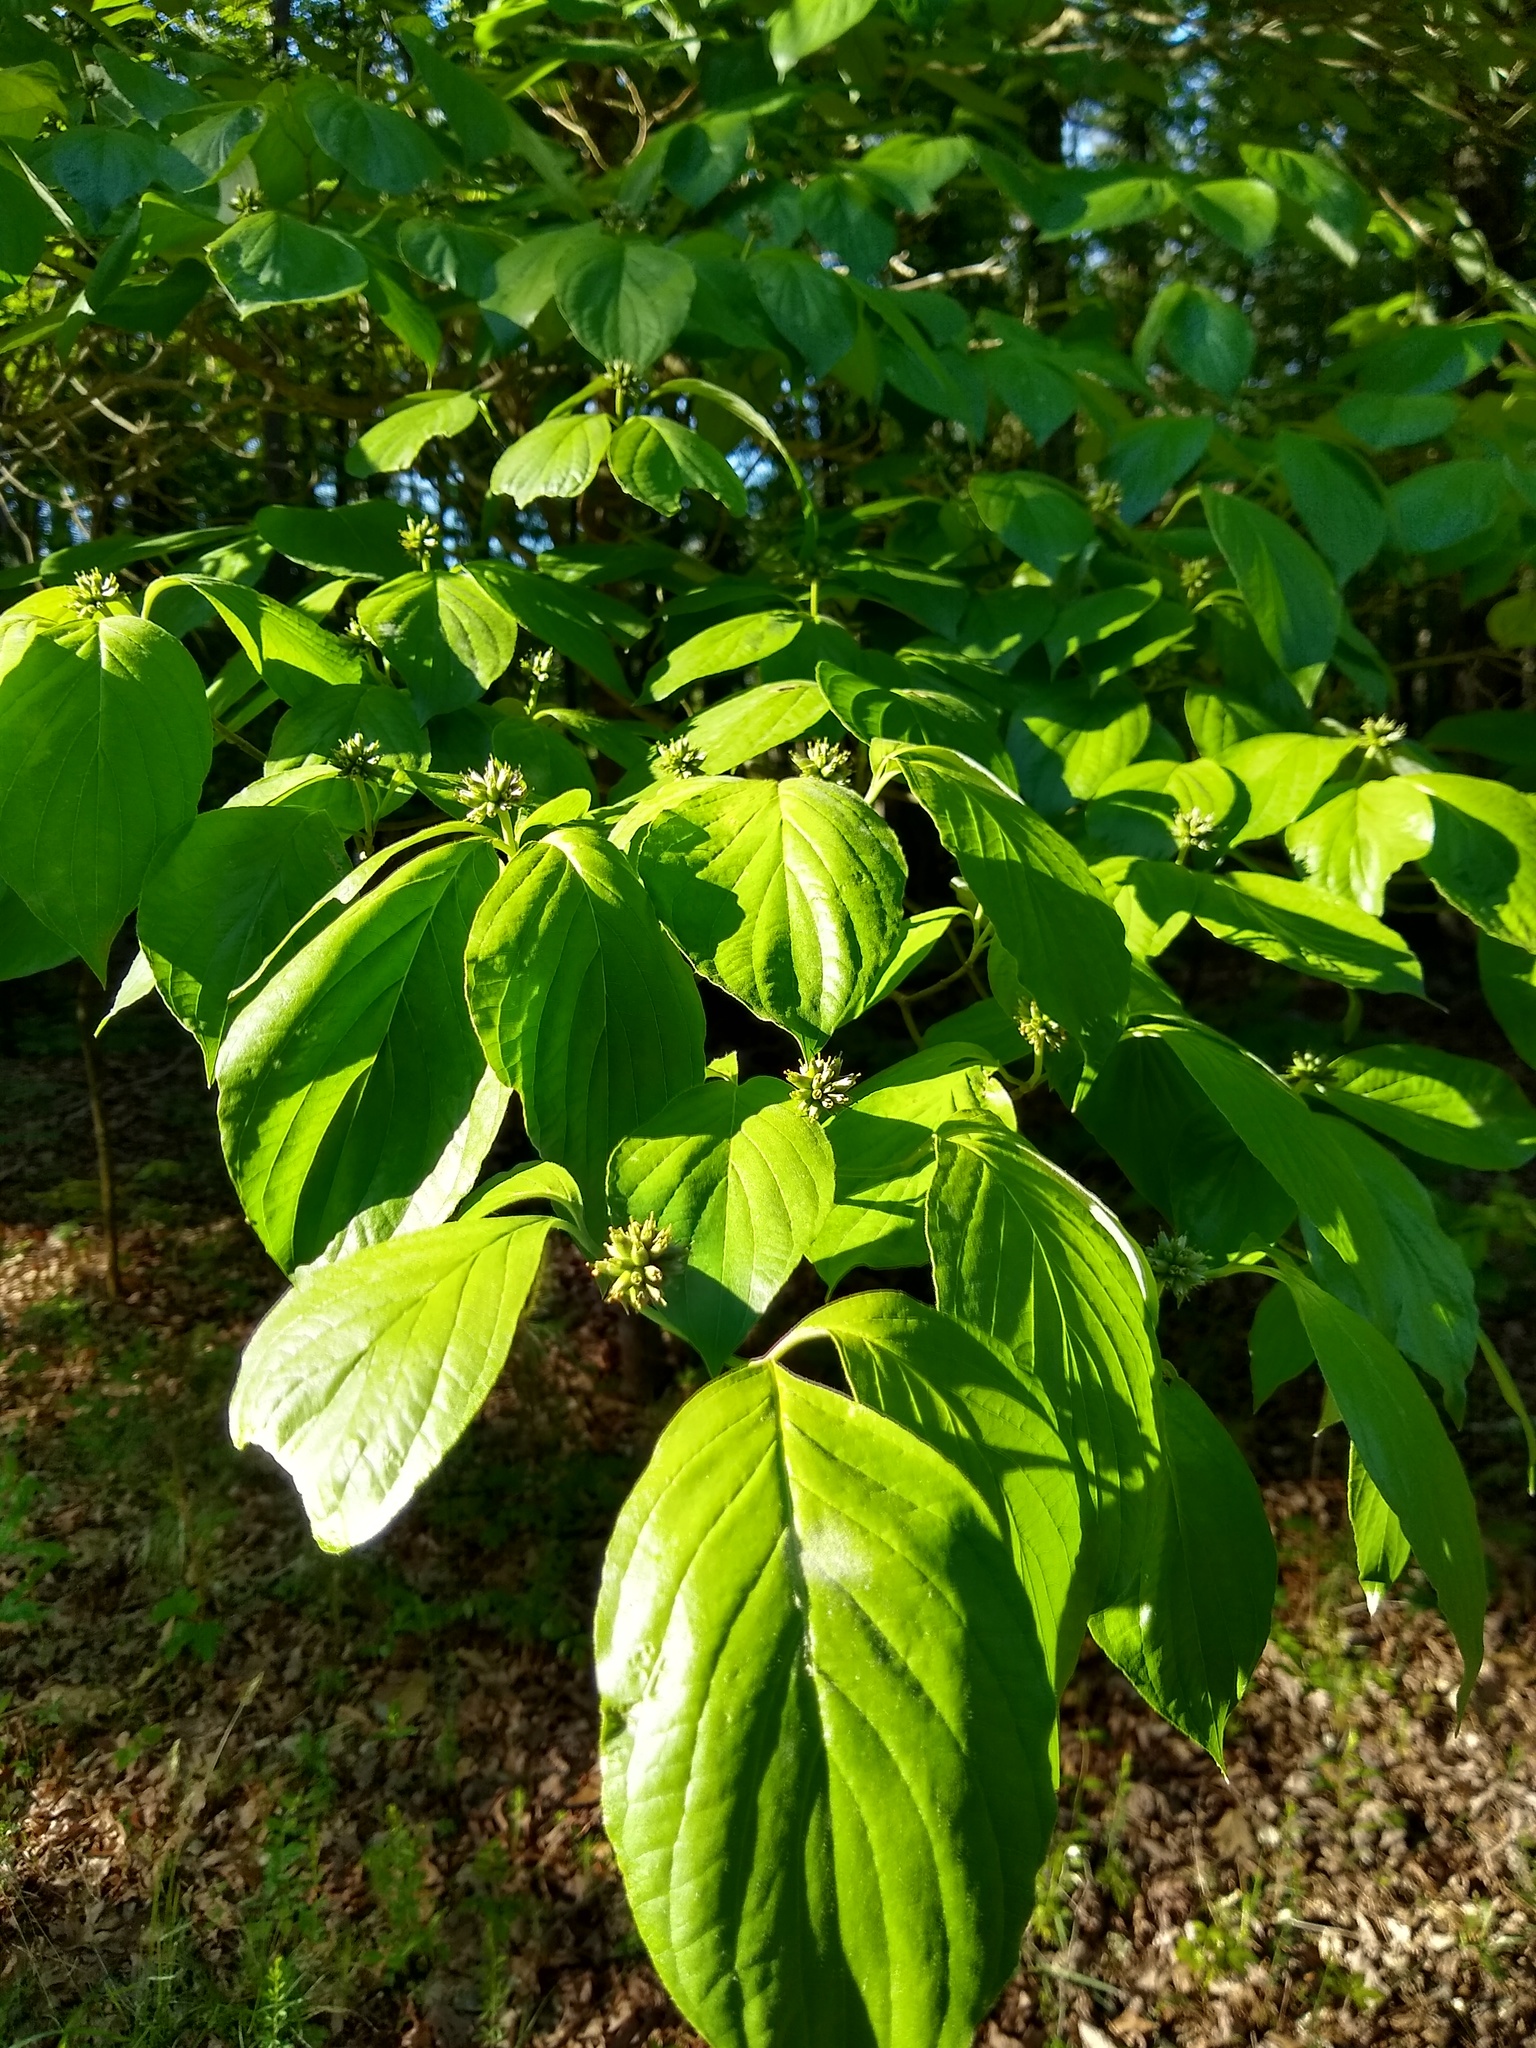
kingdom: Plantae
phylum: Tracheophyta
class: Magnoliopsida
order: Cornales
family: Cornaceae
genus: Cornus
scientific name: Cornus florida
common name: Flowering dogwood
